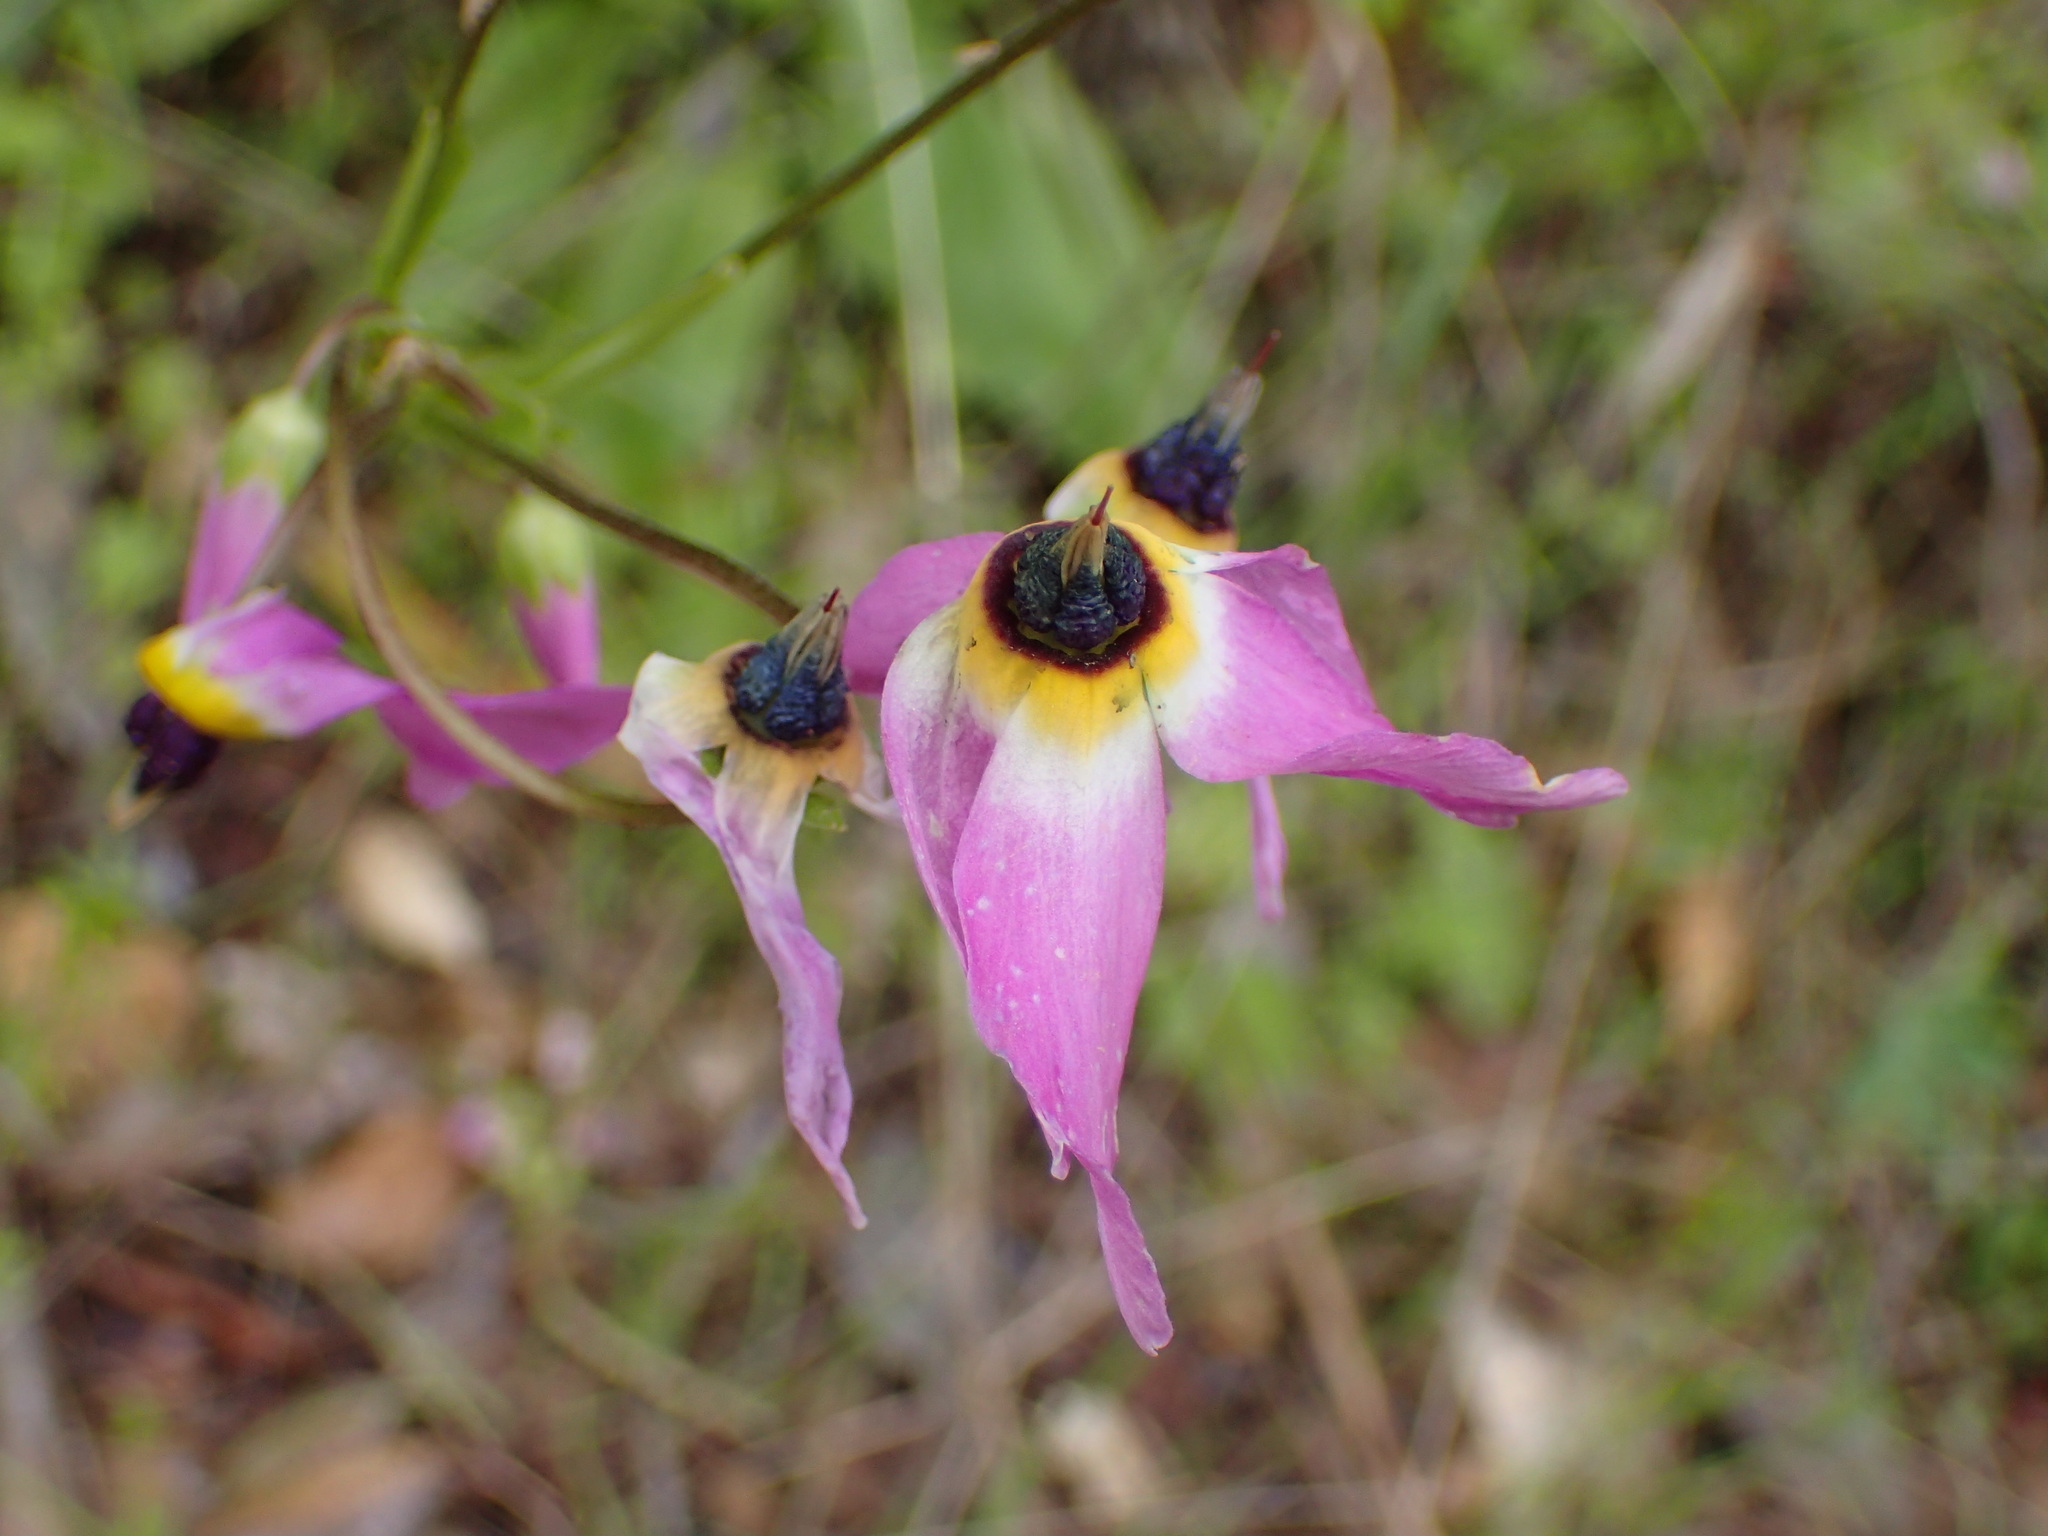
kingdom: Plantae
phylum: Tracheophyta
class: Magnoliopsida
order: Ericales
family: Primulaceae
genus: Dodecatheon
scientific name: Dodecatheon clevelandii
